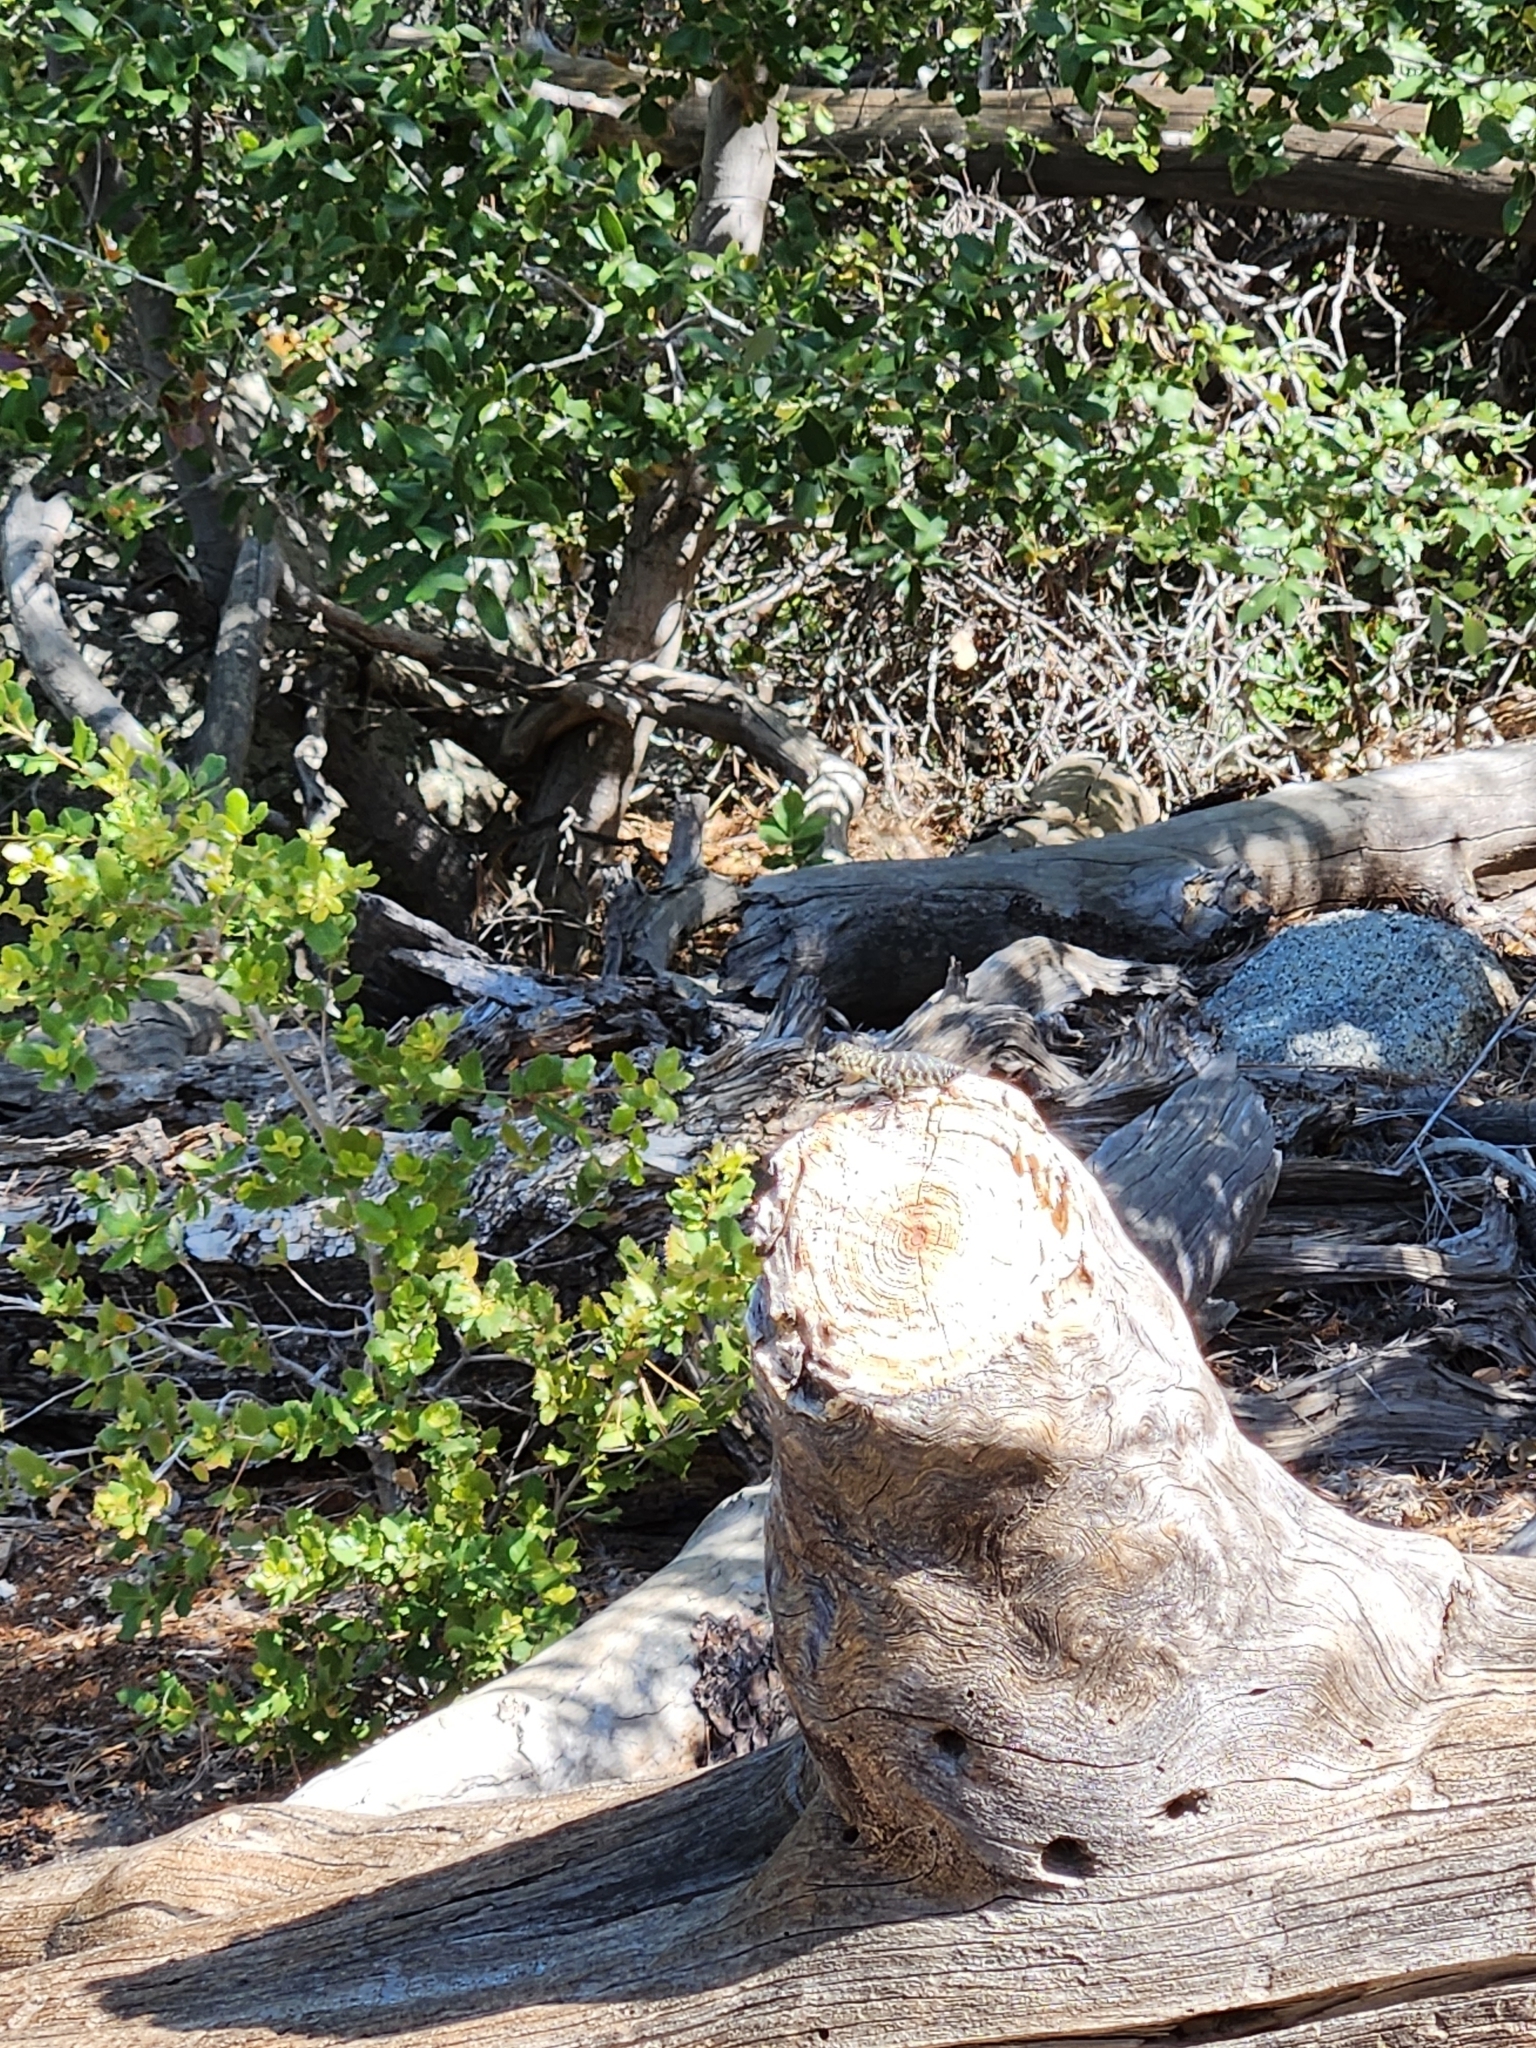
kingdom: Animalia
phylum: Chordata
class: Squamata
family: Phrynosomatidae
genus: Sceloporus
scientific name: Sceloporus orcutti
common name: Granite spiny lizard
